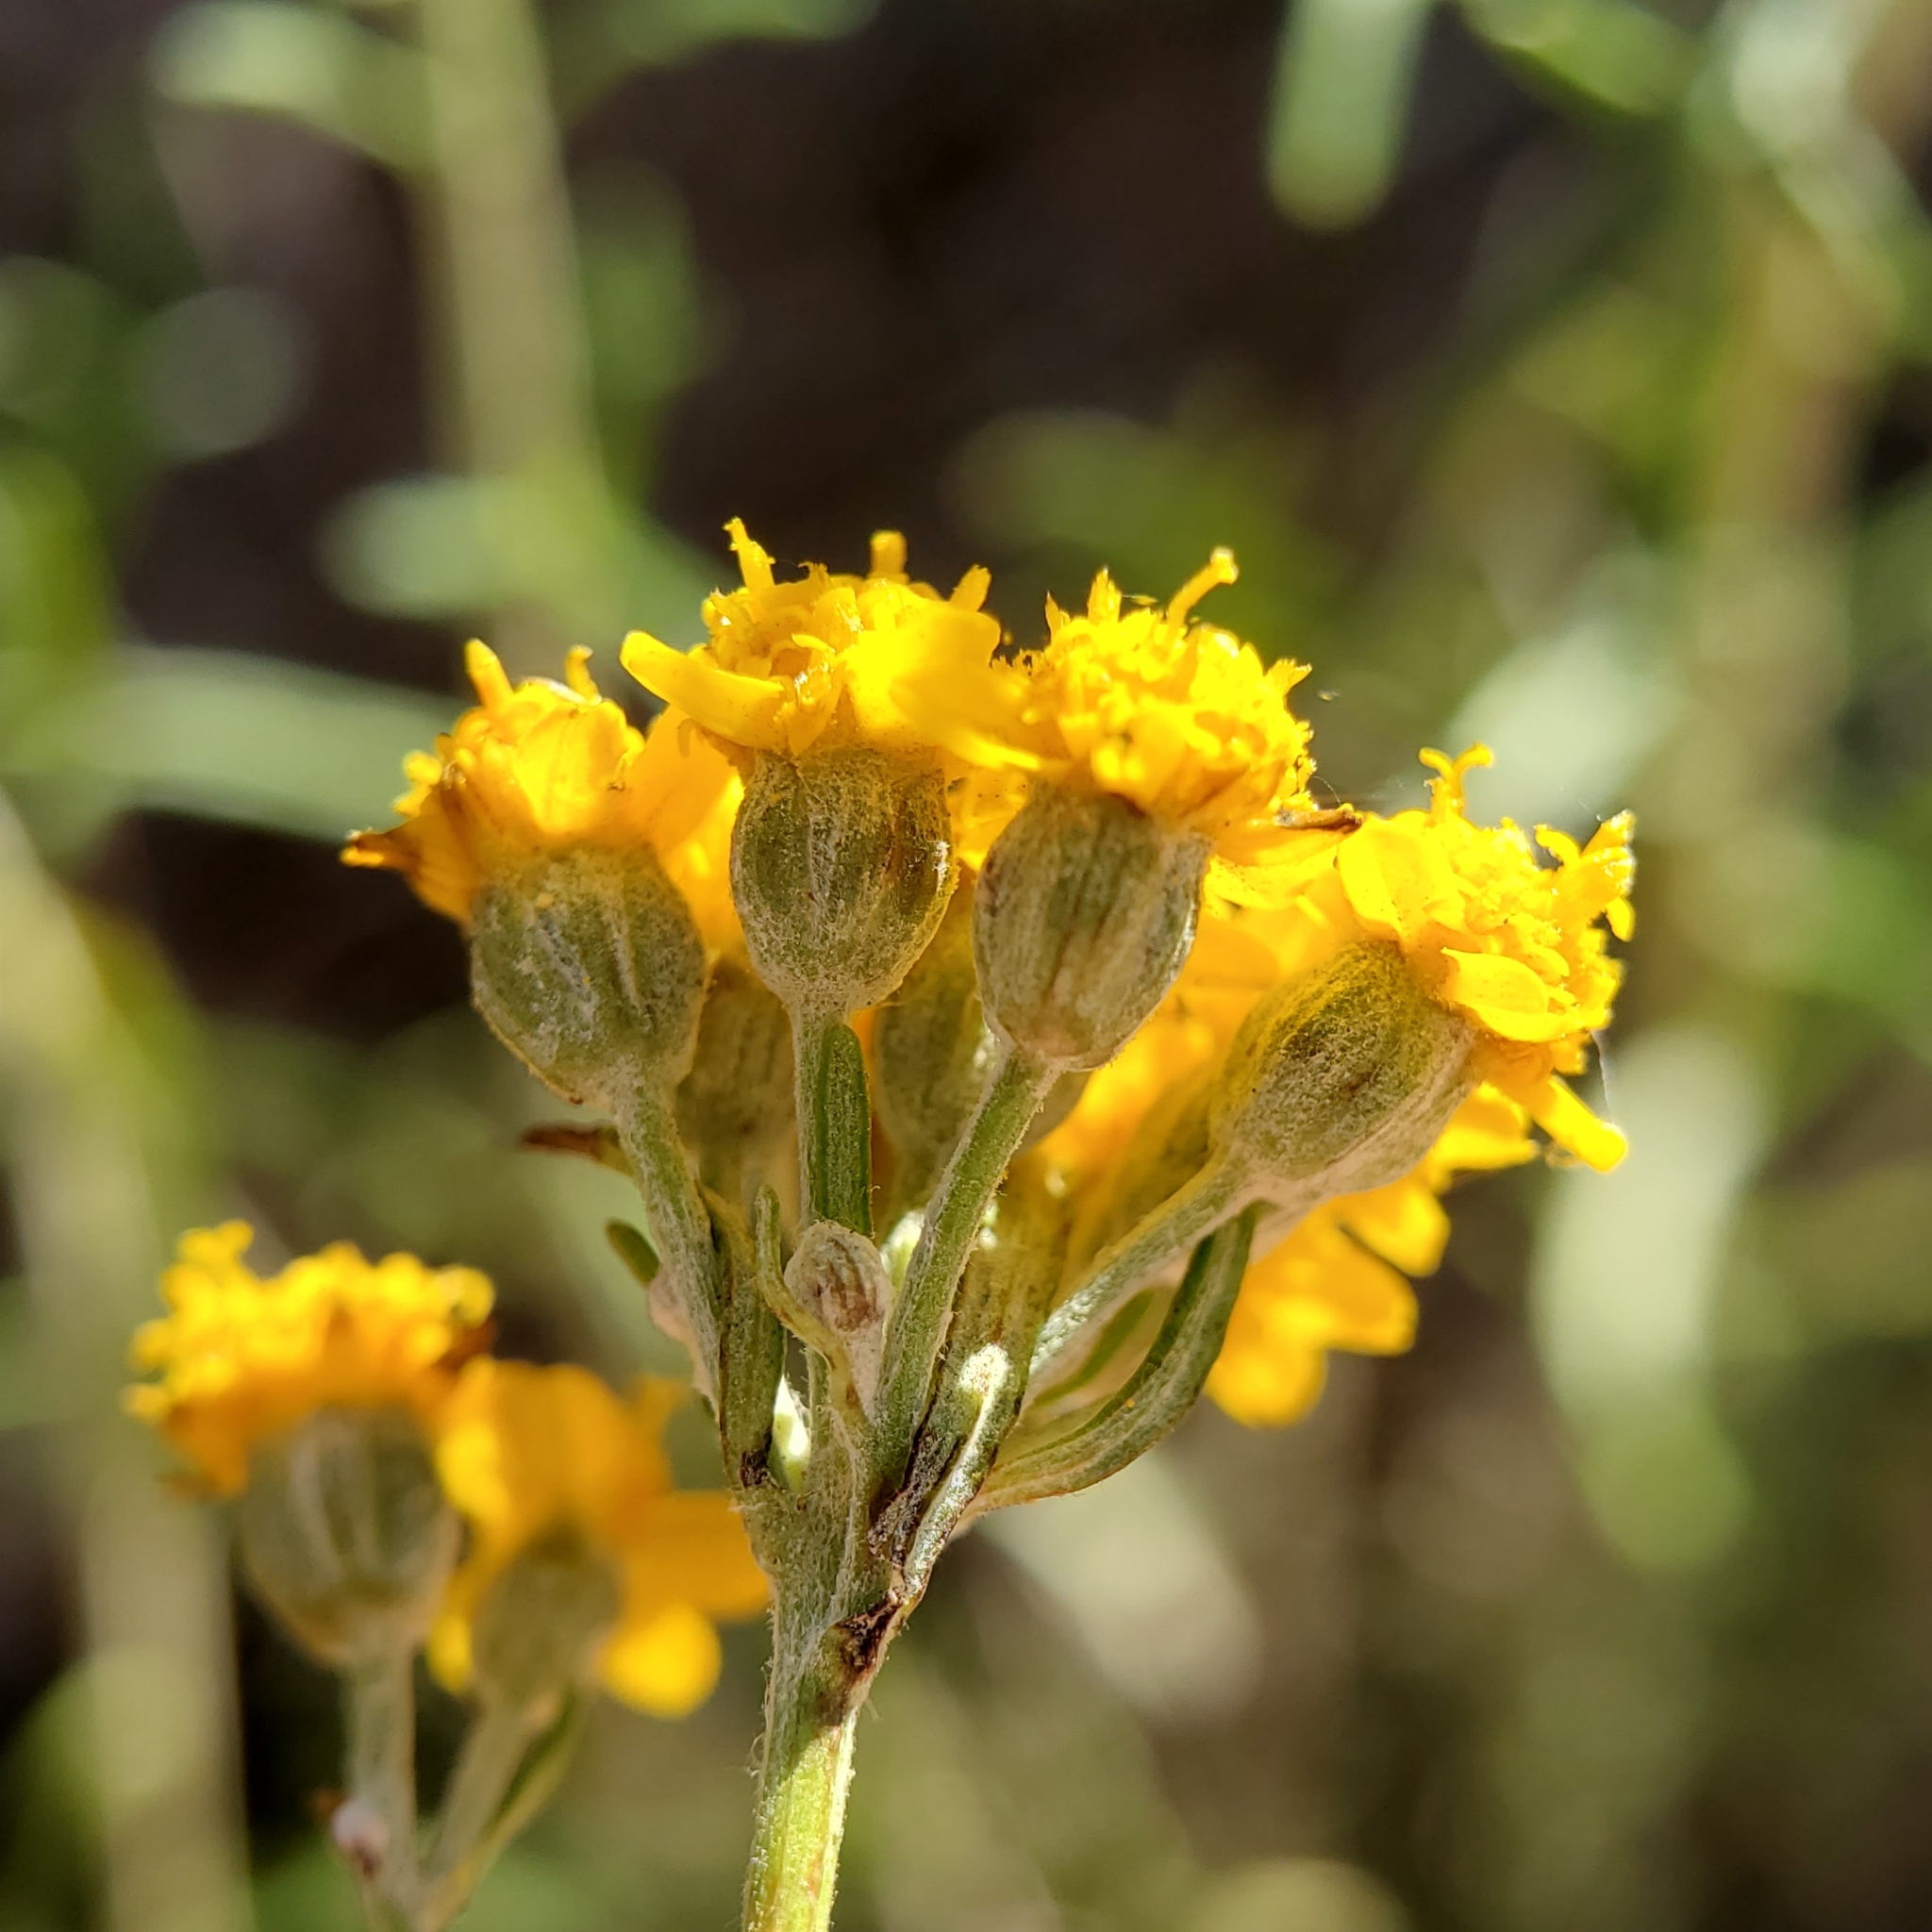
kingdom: Plantae
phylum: Tracheophyta
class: Magnoliopsida
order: Asterales
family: Asteraceae
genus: Eriophyllum
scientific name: Eriophyllum confertiflorum
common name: Golden-yarrow
